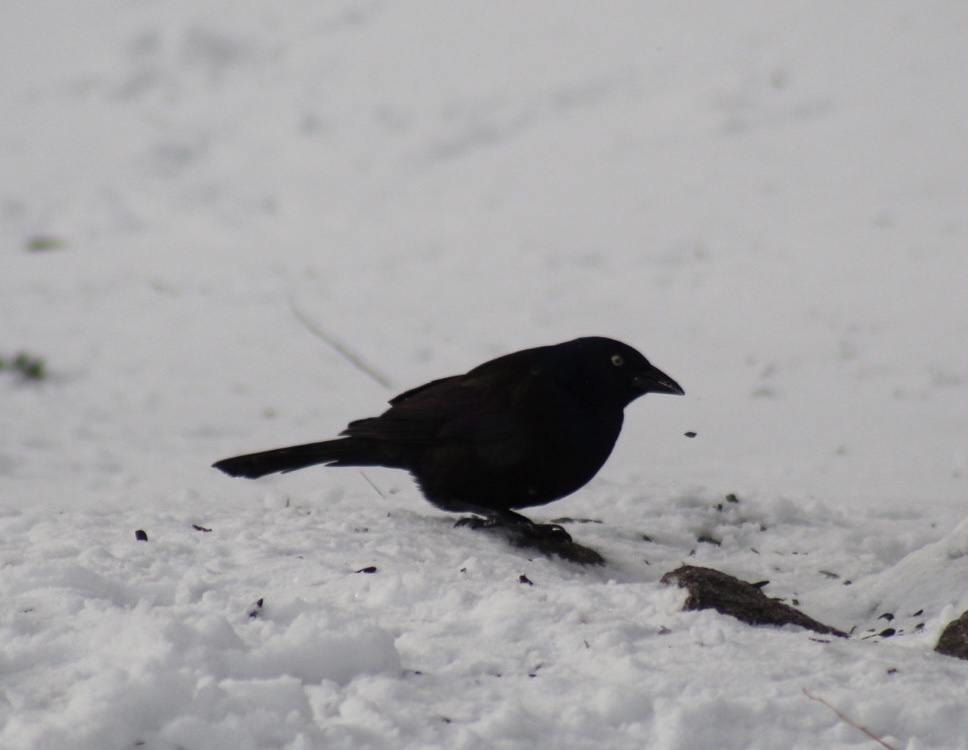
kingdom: Animalia
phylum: Chordata
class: Aves
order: Passeriformes
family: Icteridae
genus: Quiscalus
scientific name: Quiscalus quiscula
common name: Common grackle
